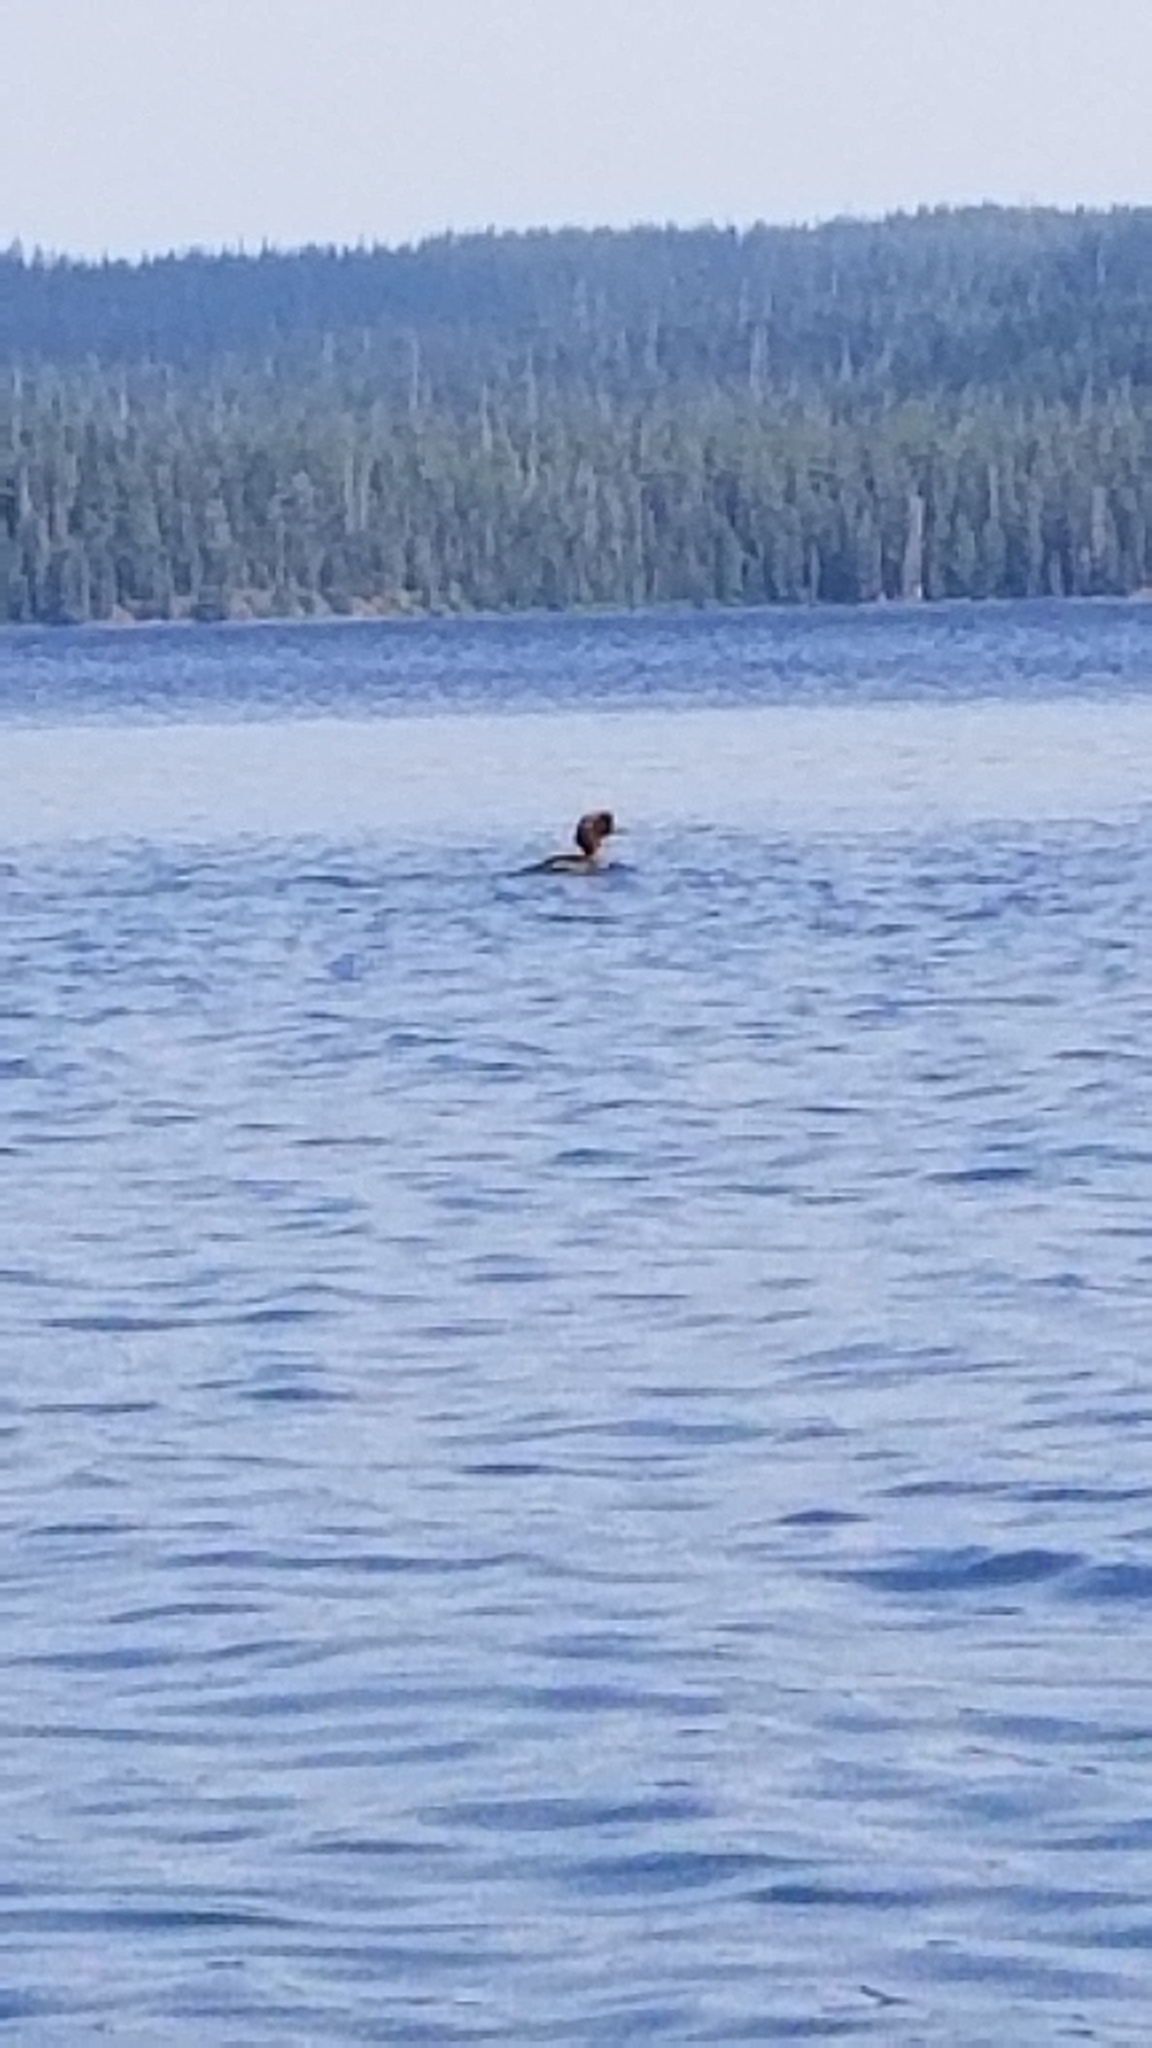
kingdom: Animalia
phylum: Chordata
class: Aves
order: Anseriformes
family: Anatidae
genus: Bucephala
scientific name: Bucephala islandica
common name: Barrow's goldeneye
